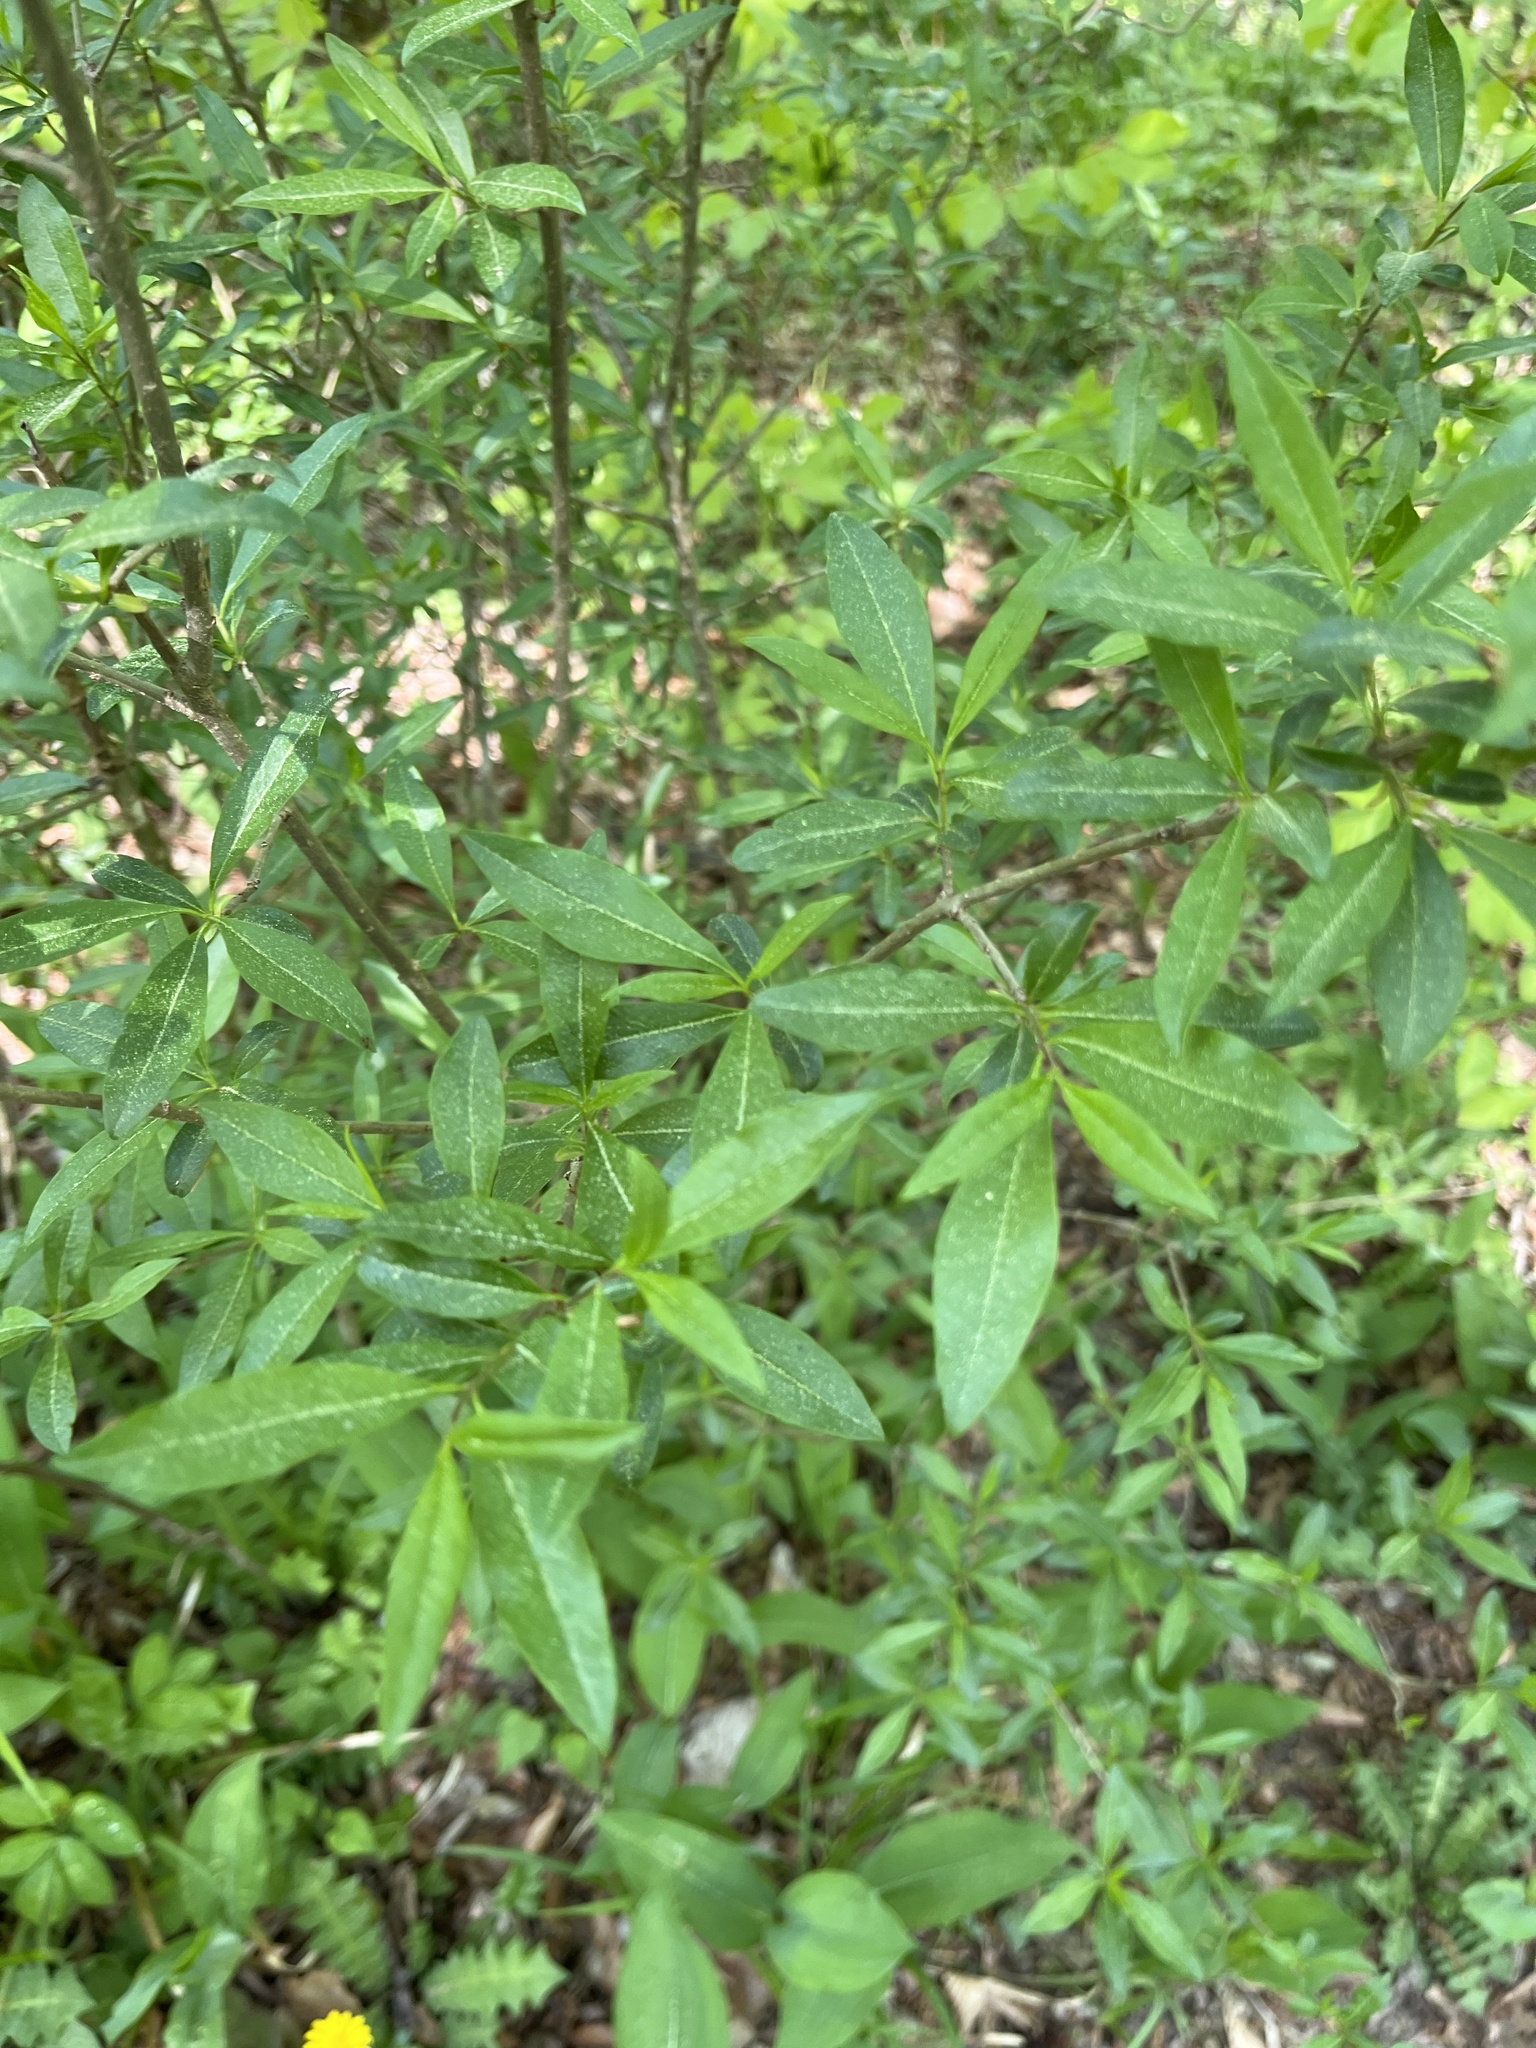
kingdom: Plantae
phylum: Tracheophyta
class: Magnoliopsida
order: Lamiales
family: Oleaceae
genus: Ligustrum
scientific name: Ligustrum vulgare
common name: Wild privet
